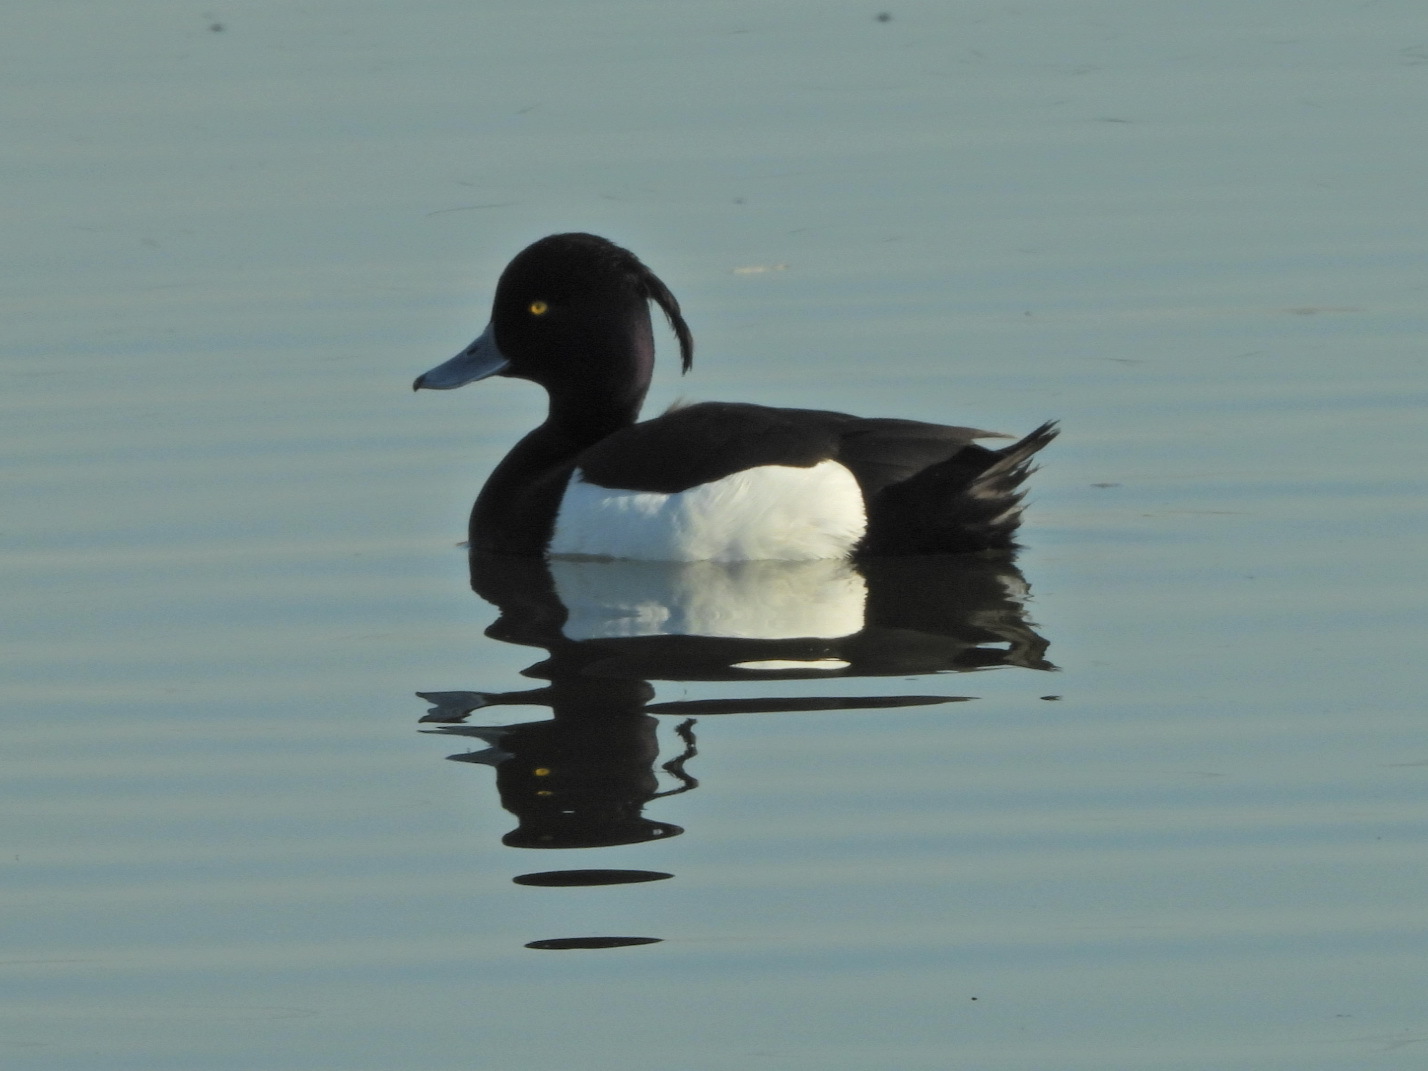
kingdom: Animalia
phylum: Chordata
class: Aves
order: Anseriformes
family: Anatidae
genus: Aythya
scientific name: Aythya fuligula
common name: Tufted duck
